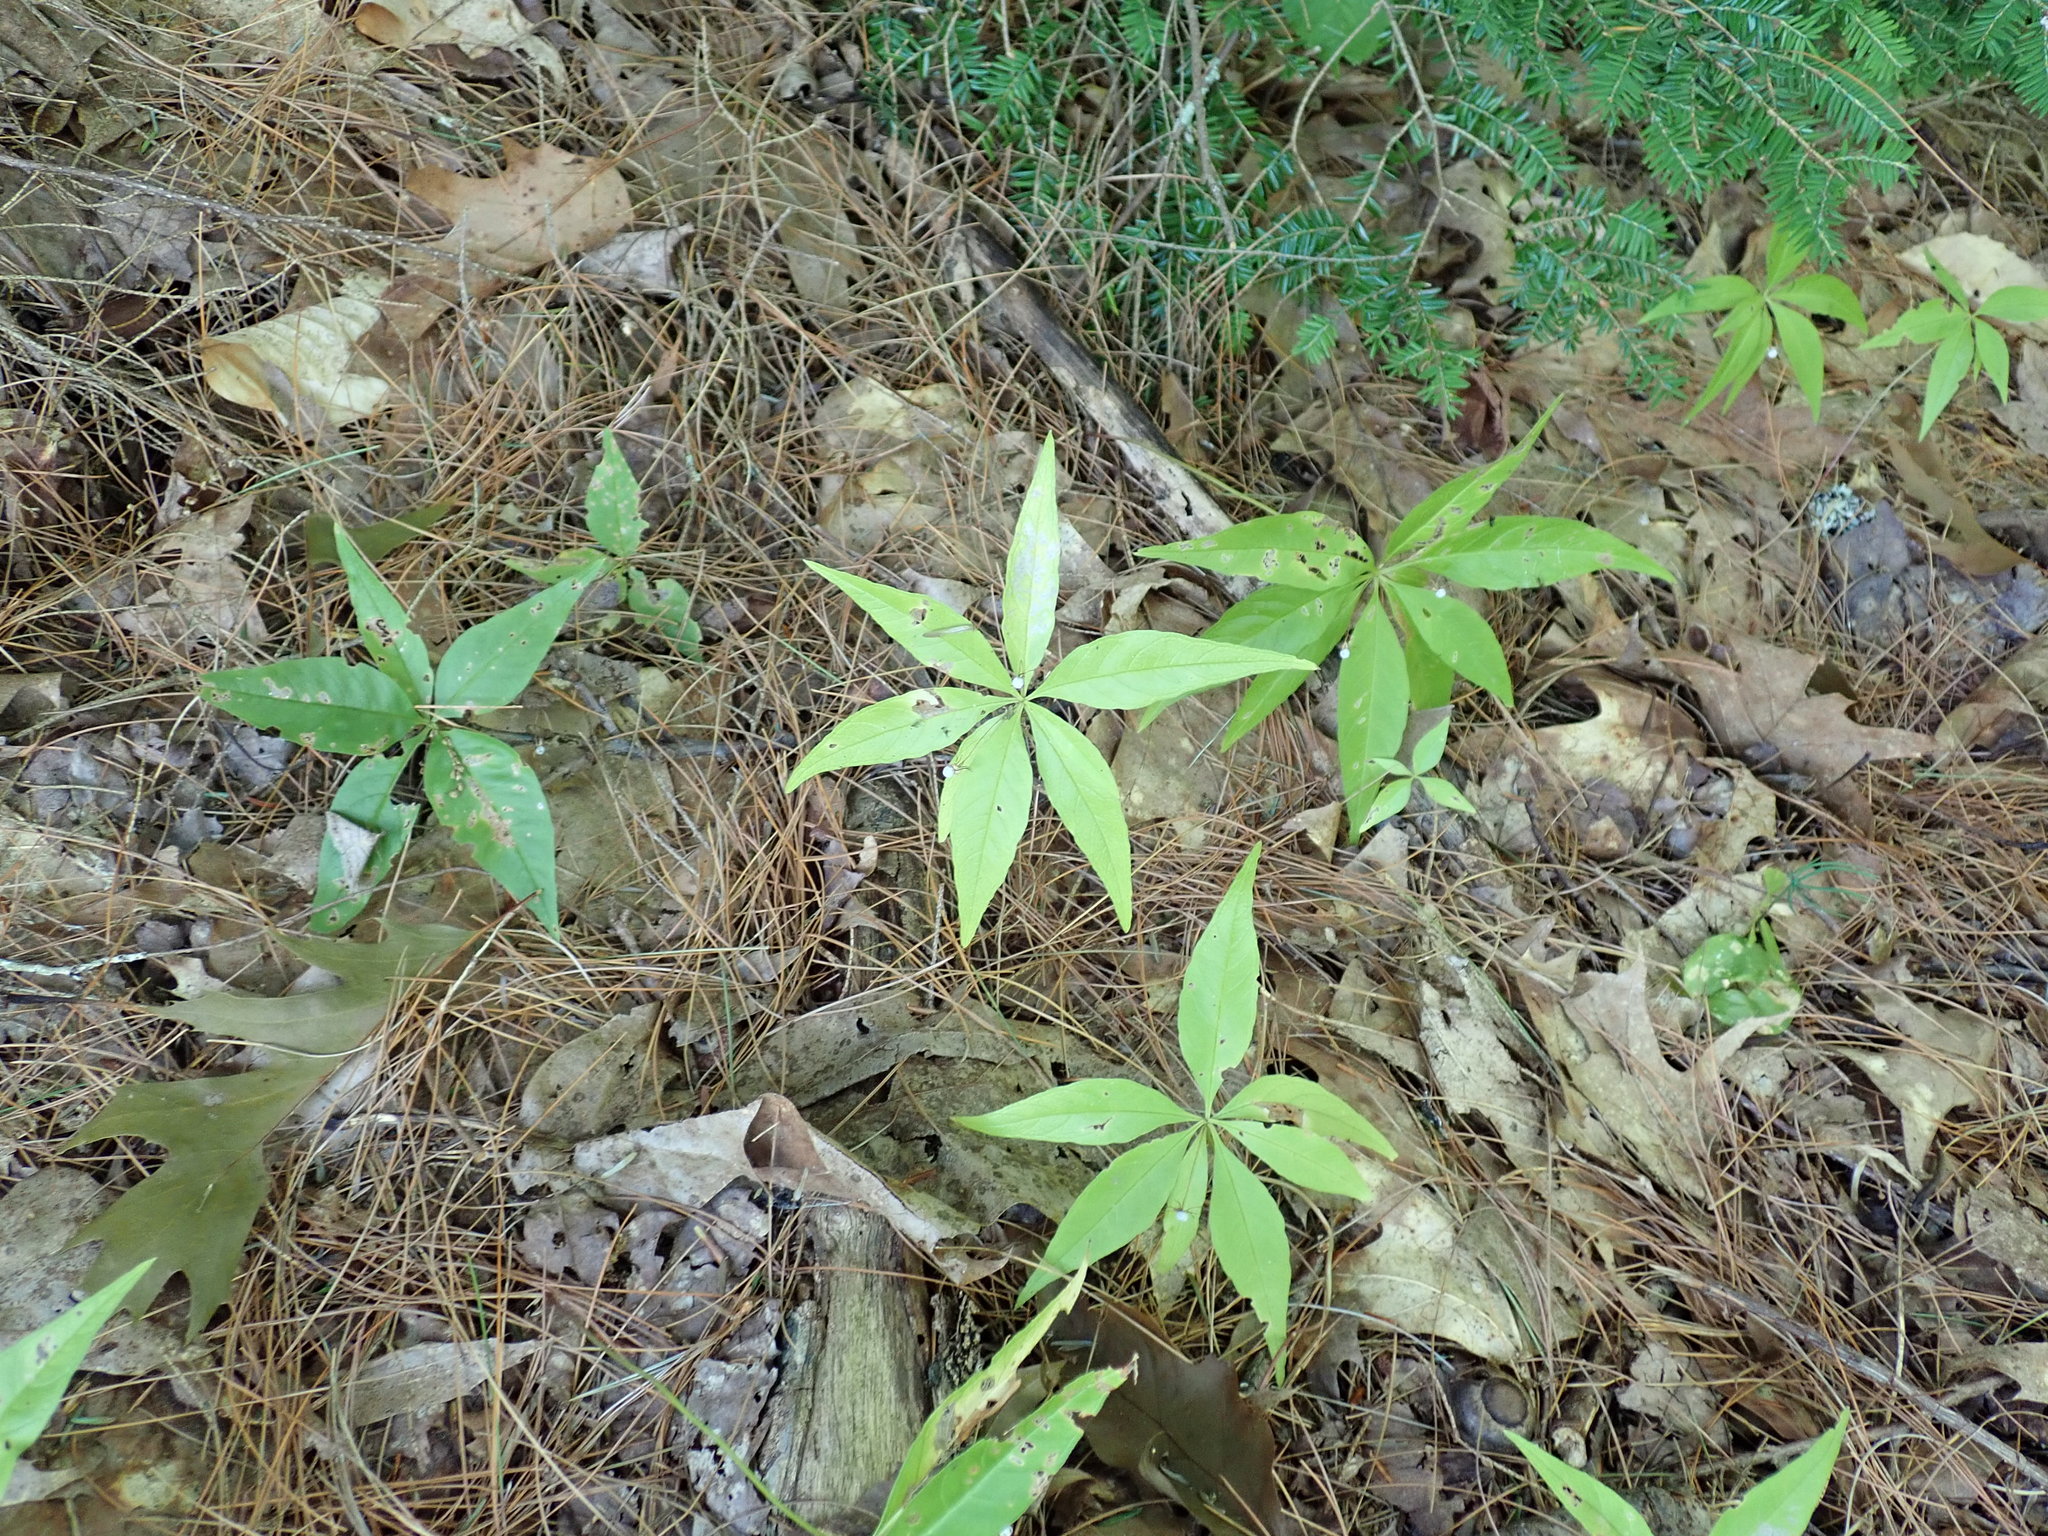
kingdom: Plantae
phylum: Tracheophyta
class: Magnoliopsida
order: Ericales
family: Primulaceae
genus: Lysimachia
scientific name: Lysimachia borealis
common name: American starflower
